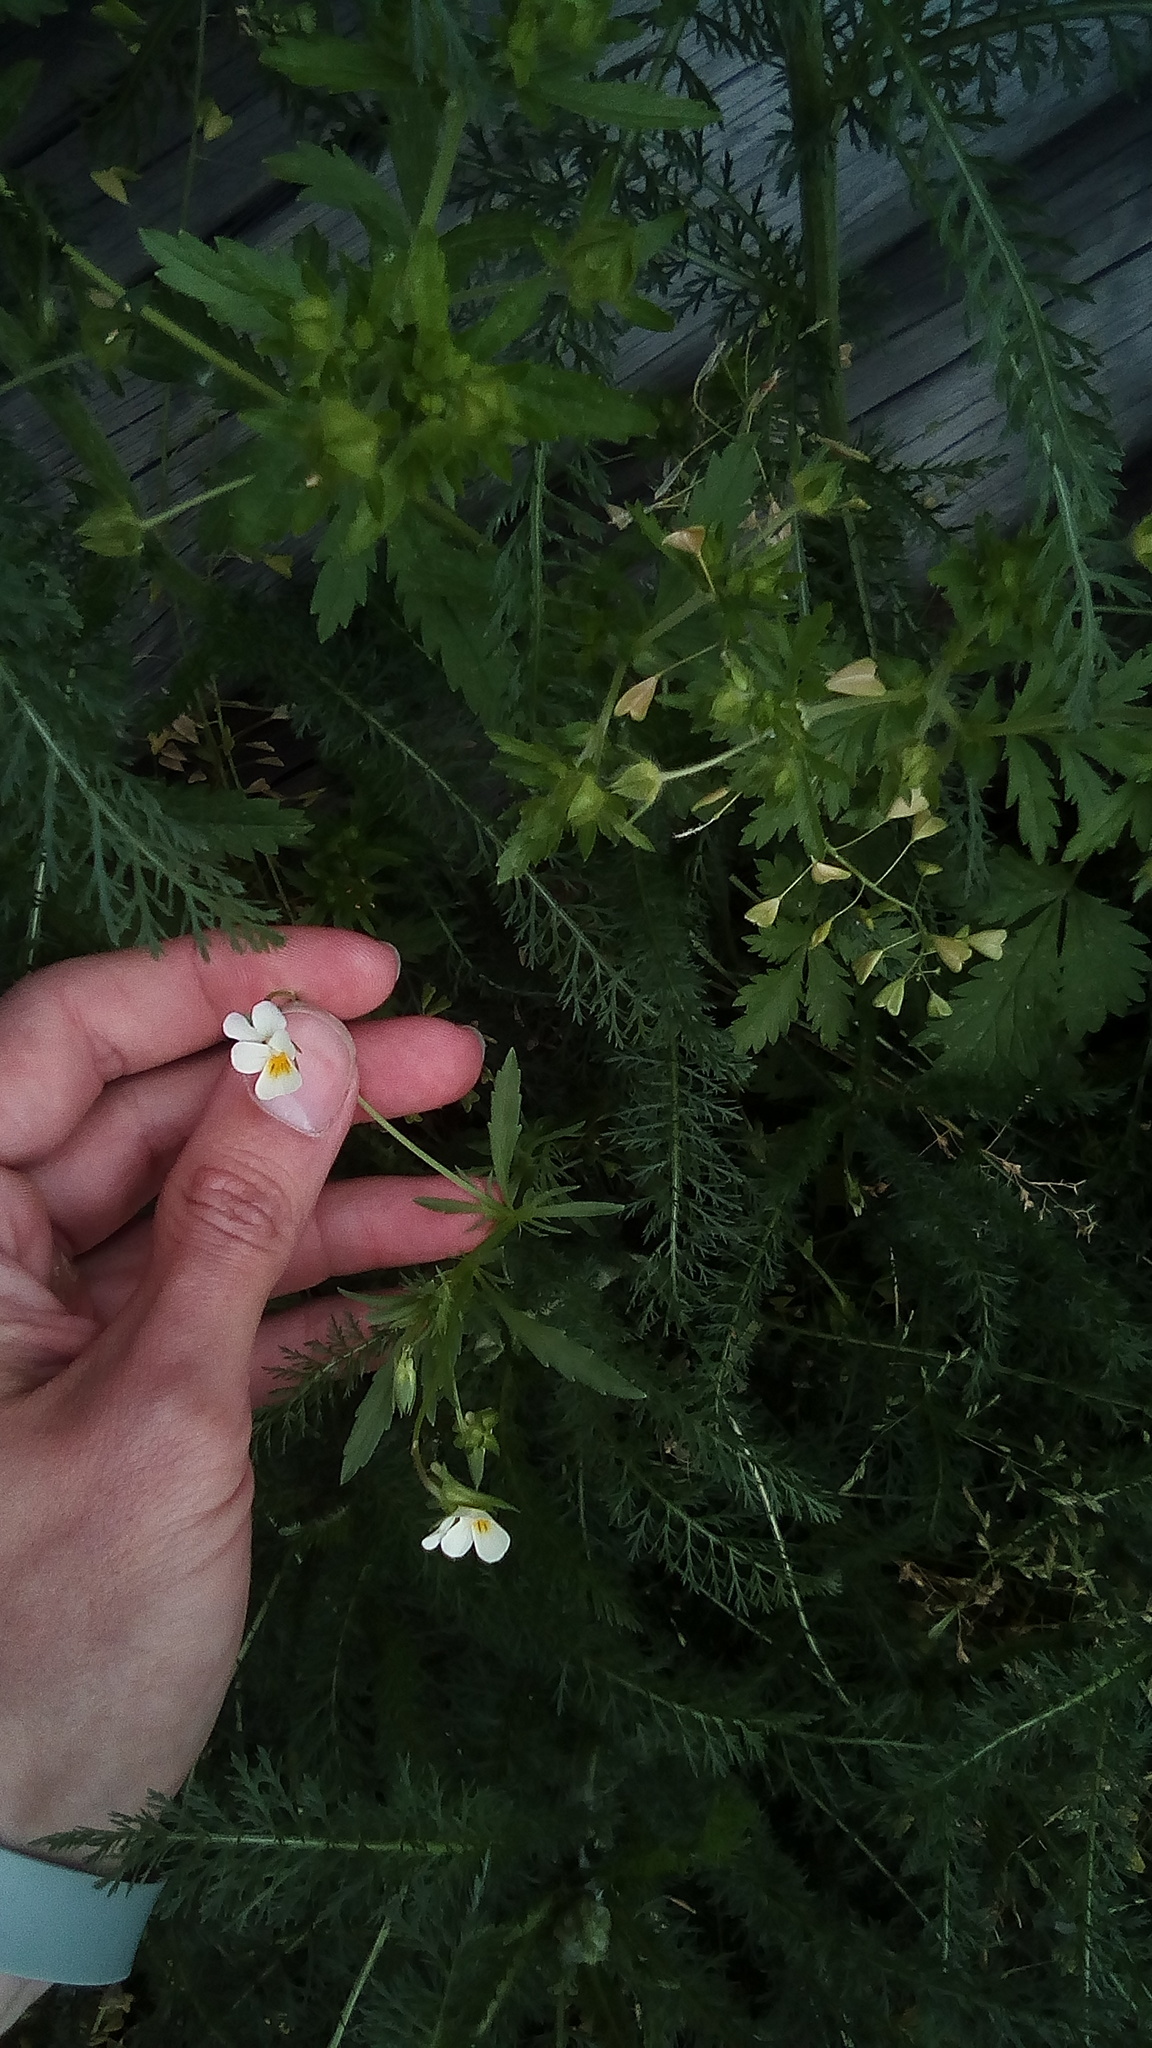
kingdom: Plantae
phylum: Tracheophyta
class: Magnoliopsida
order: Malpighiales
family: Violaceae
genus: Viola
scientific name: Viola arvensis
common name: Field pansy
